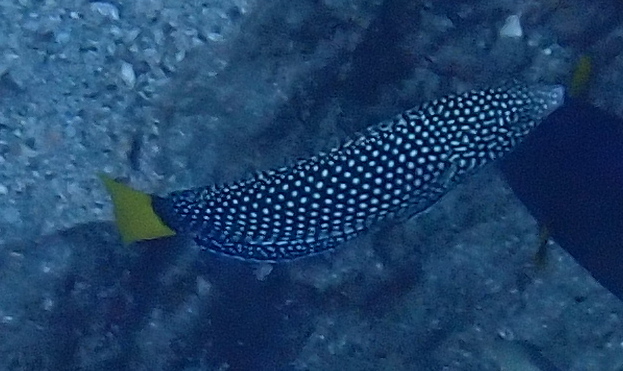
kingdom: Animalia
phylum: Chordata
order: Perciformes
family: Labridae
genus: Anampses
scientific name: Anampses meleagrides
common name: Yellowtail wrasse
